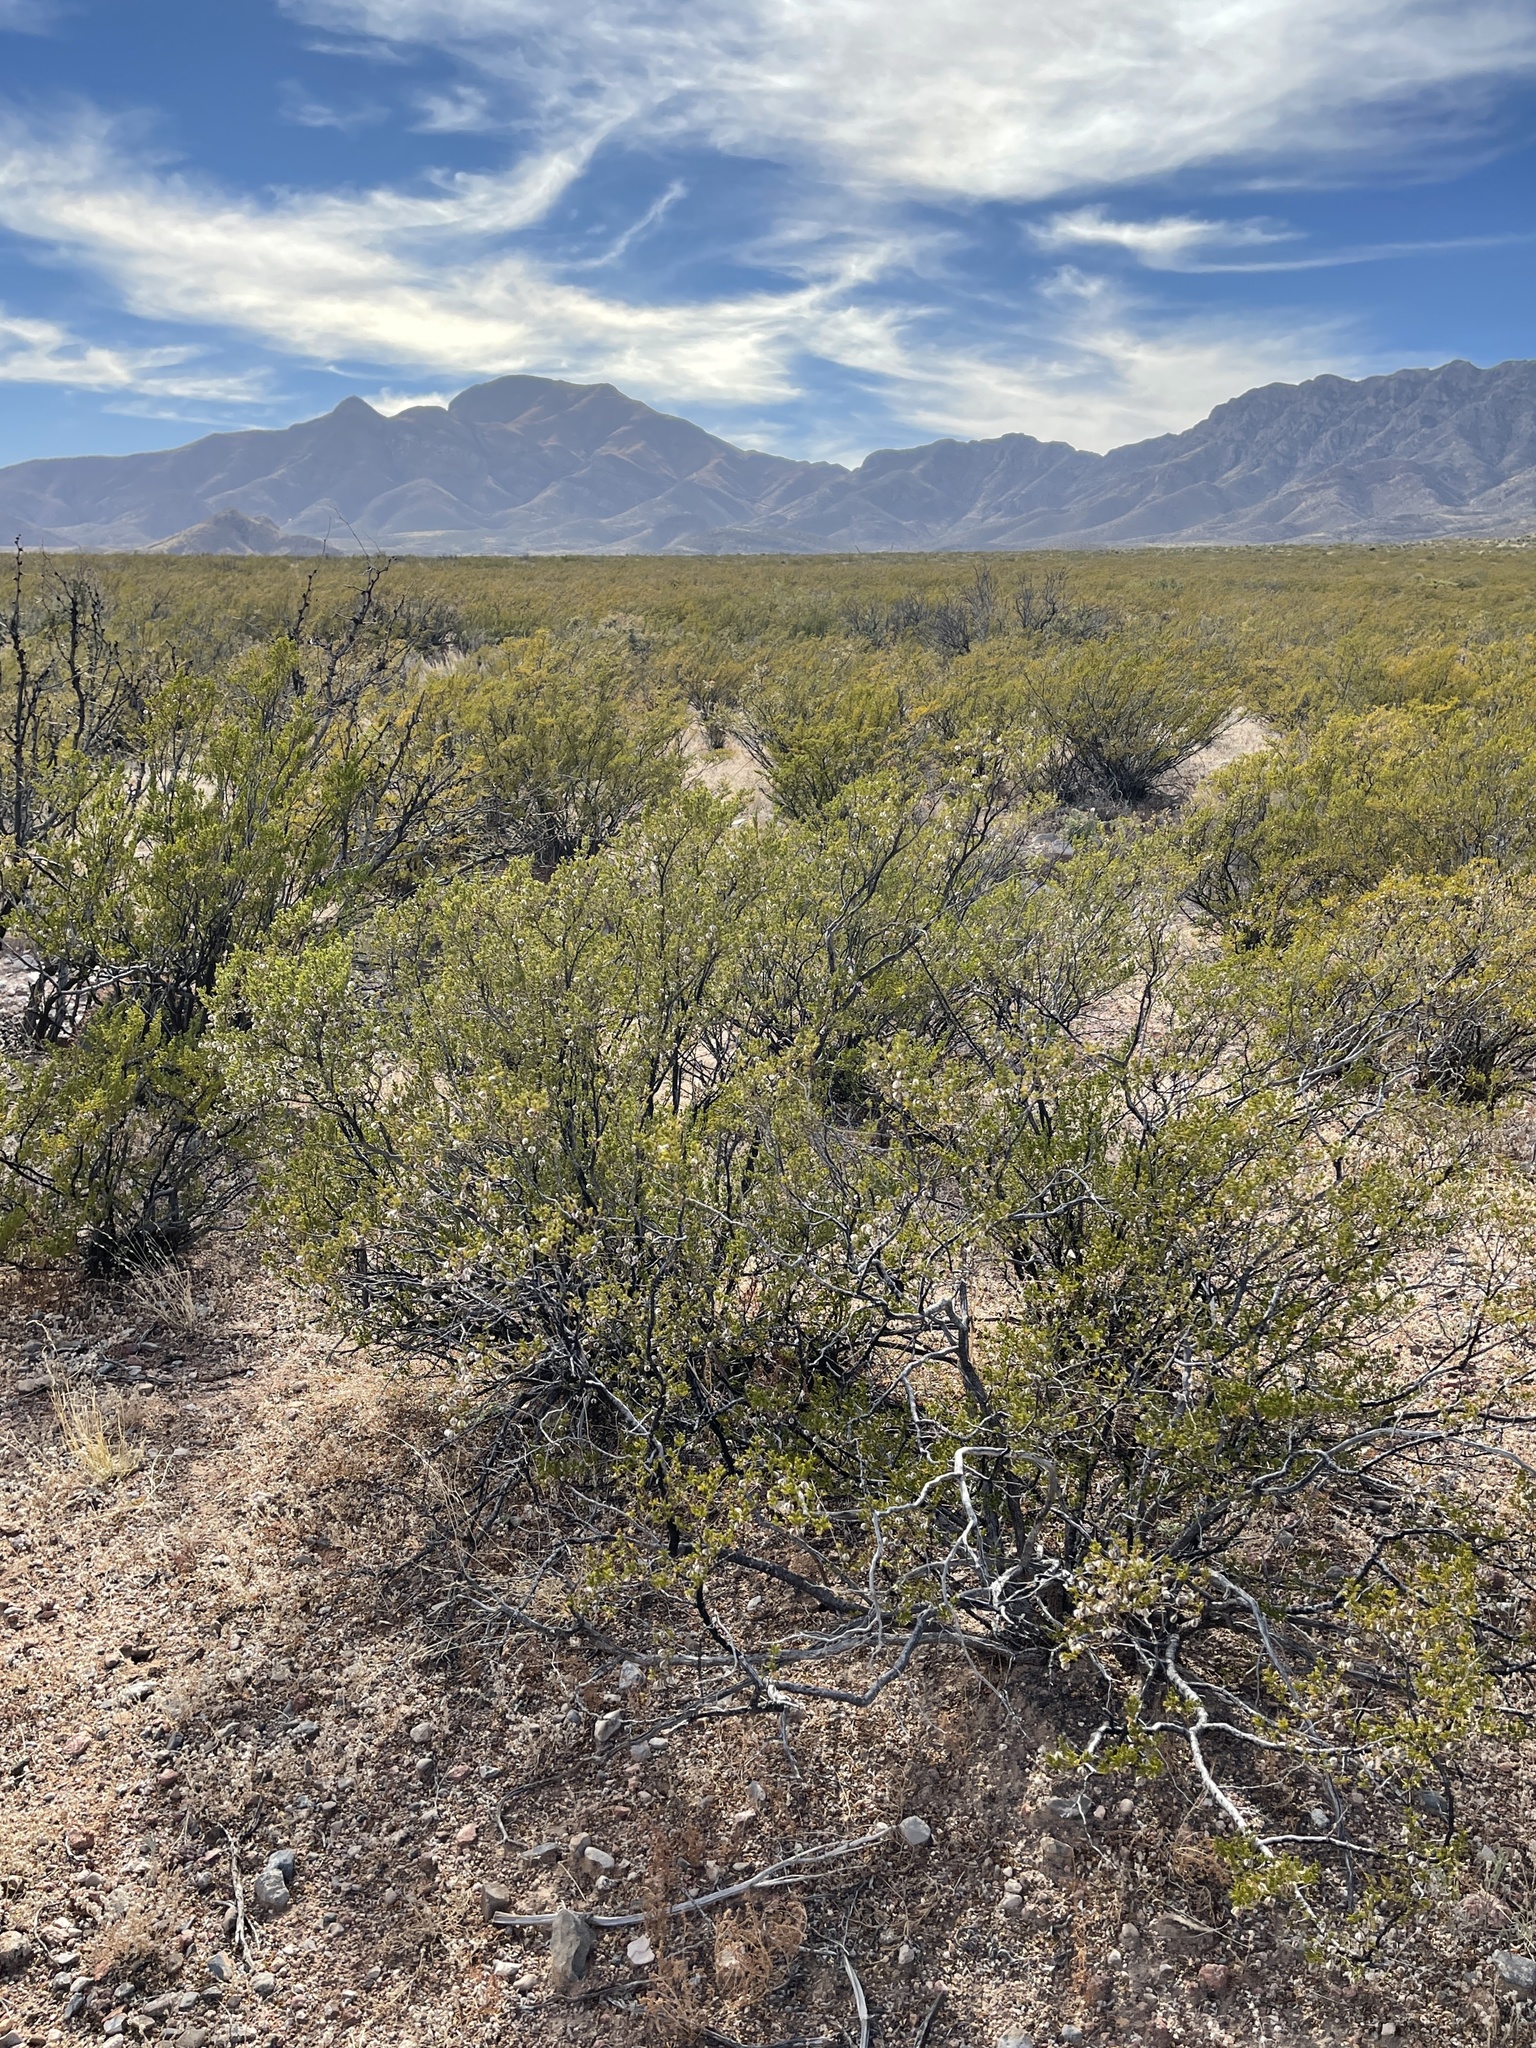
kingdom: Plantae
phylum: Tracheophyta
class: Magnoliopsida
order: Zygophyllales
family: Zygophyllaceae
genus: Larrea
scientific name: Larrea tridentata
